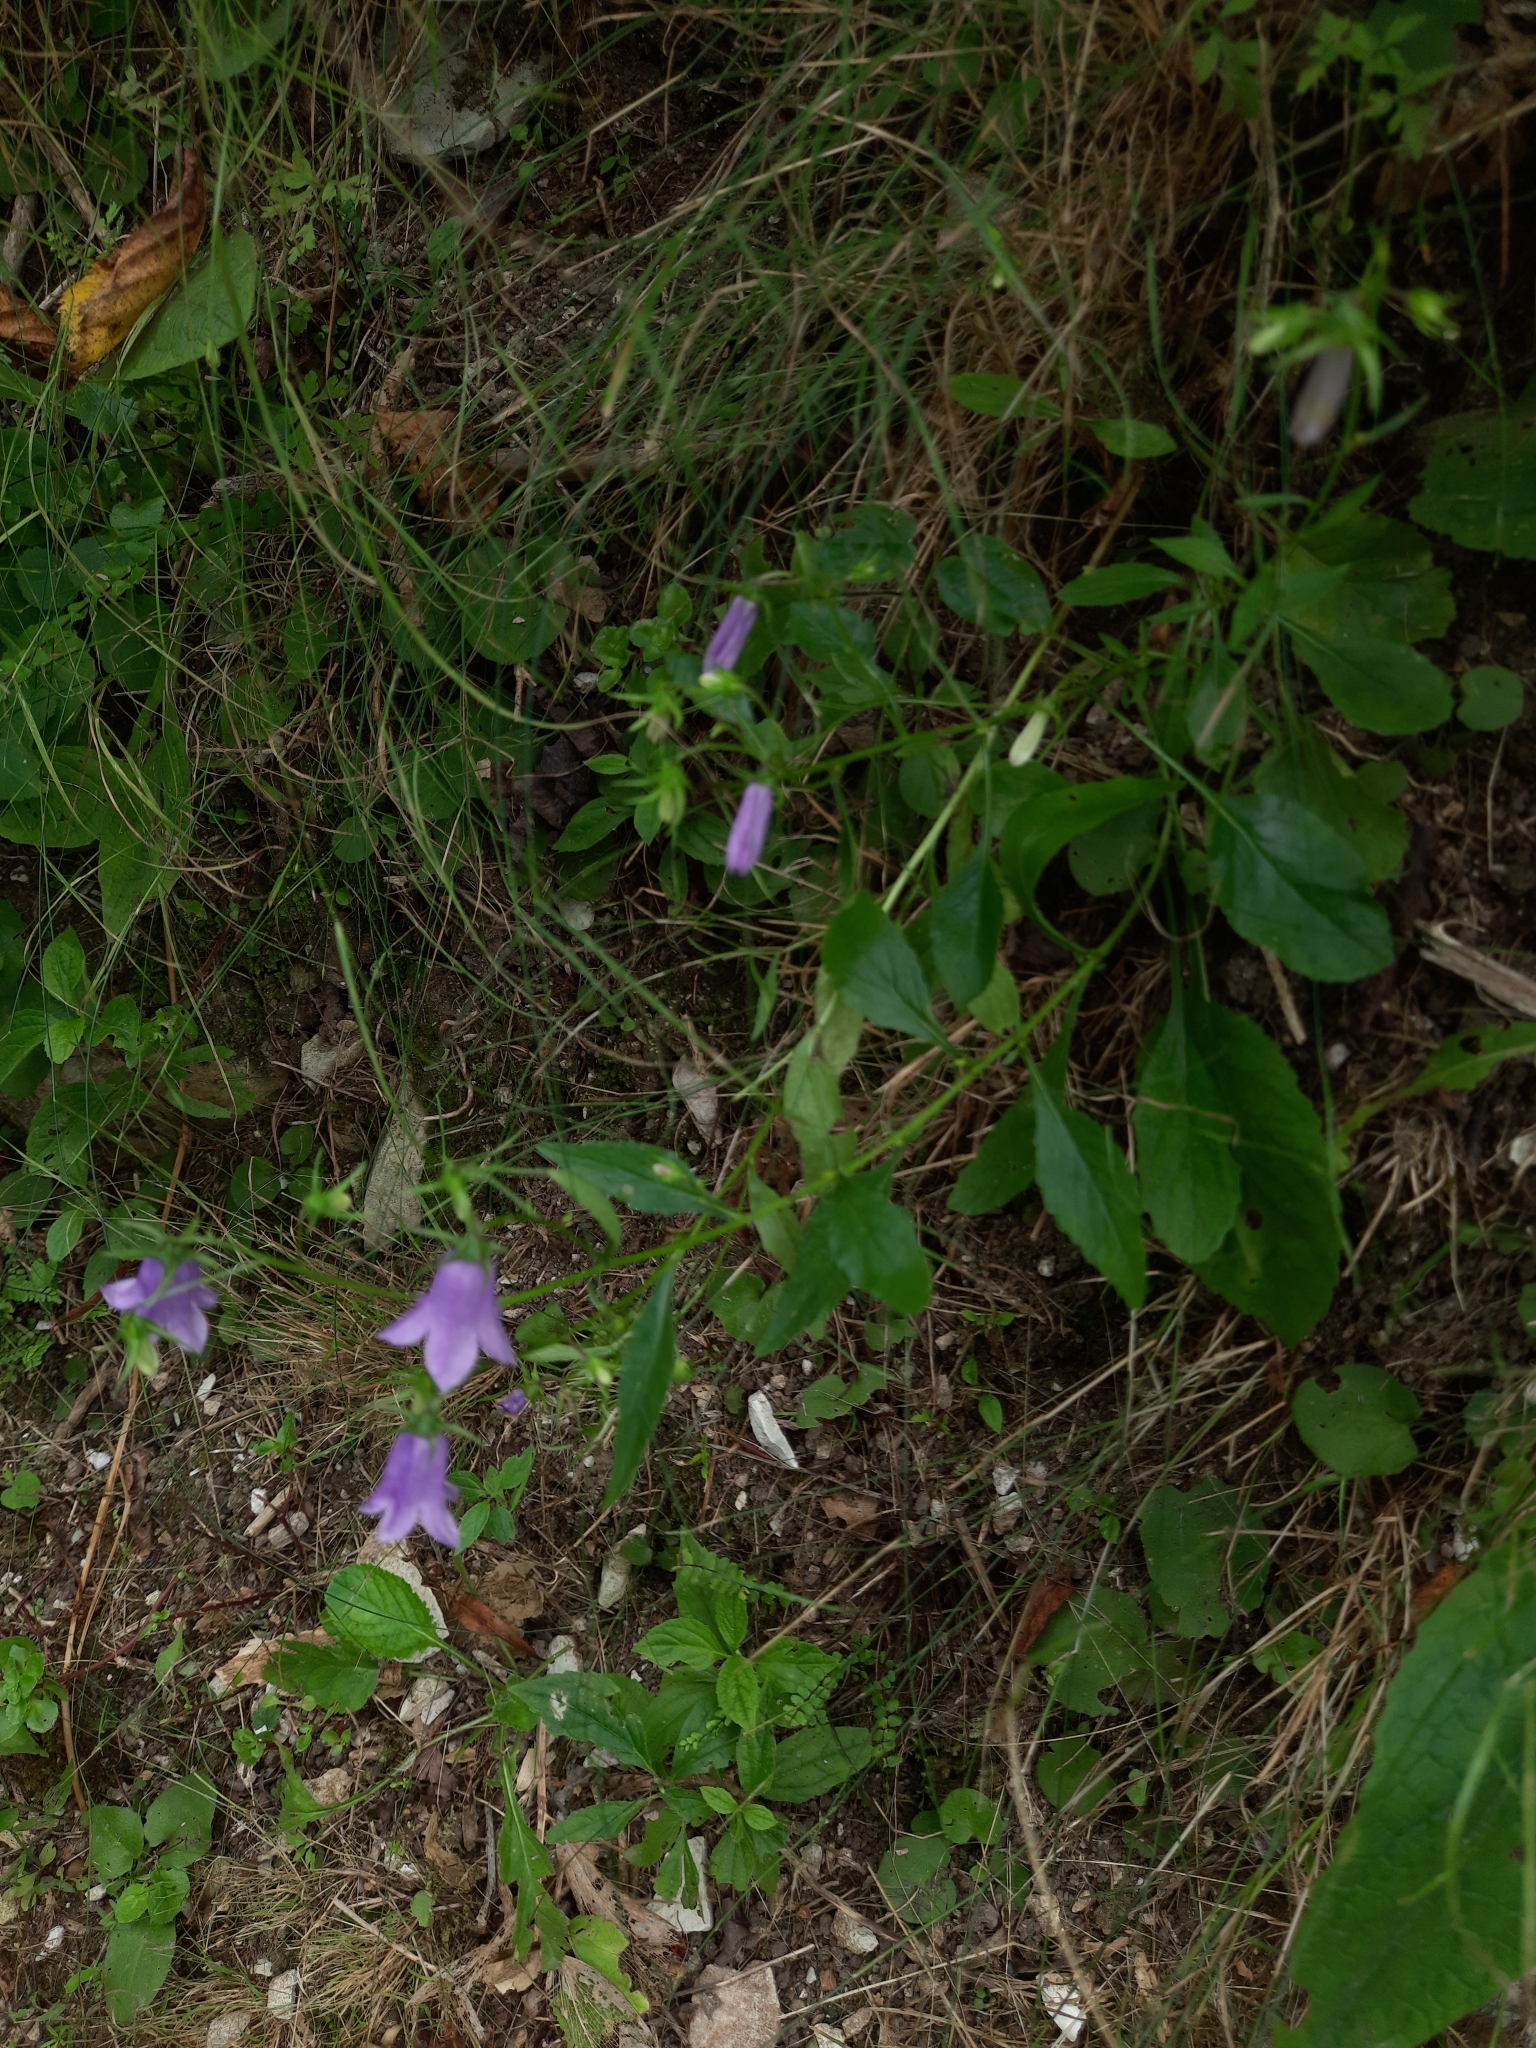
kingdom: Plantae
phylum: Tracheophyta
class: Magnoliopsida
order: Asterales
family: Campanulaceae
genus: Campanula
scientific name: Campanula rapunculoides
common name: Creeping bellflower
